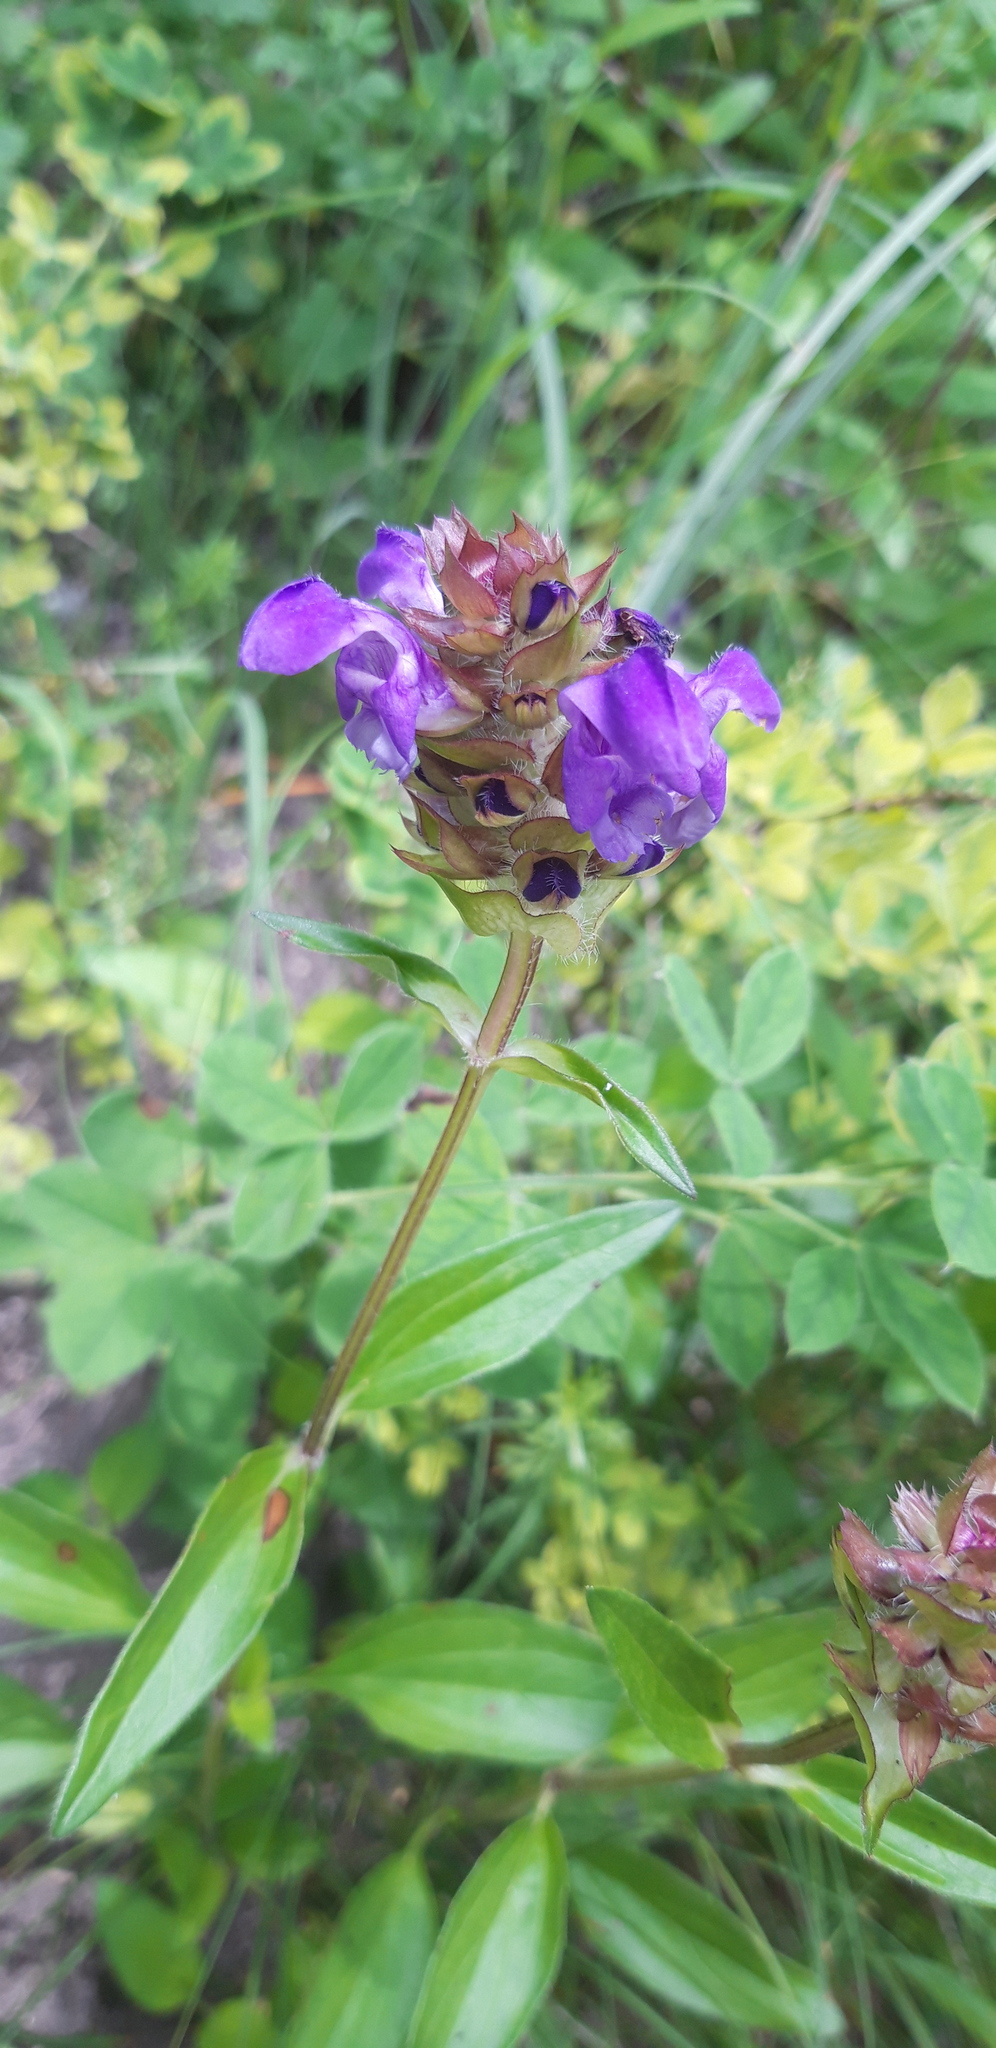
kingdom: Plantae
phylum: Tracheophyta
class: Magnoliopsida
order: Lamiales
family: Lamiaceae
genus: Prunella
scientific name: Prunella grandiflora
